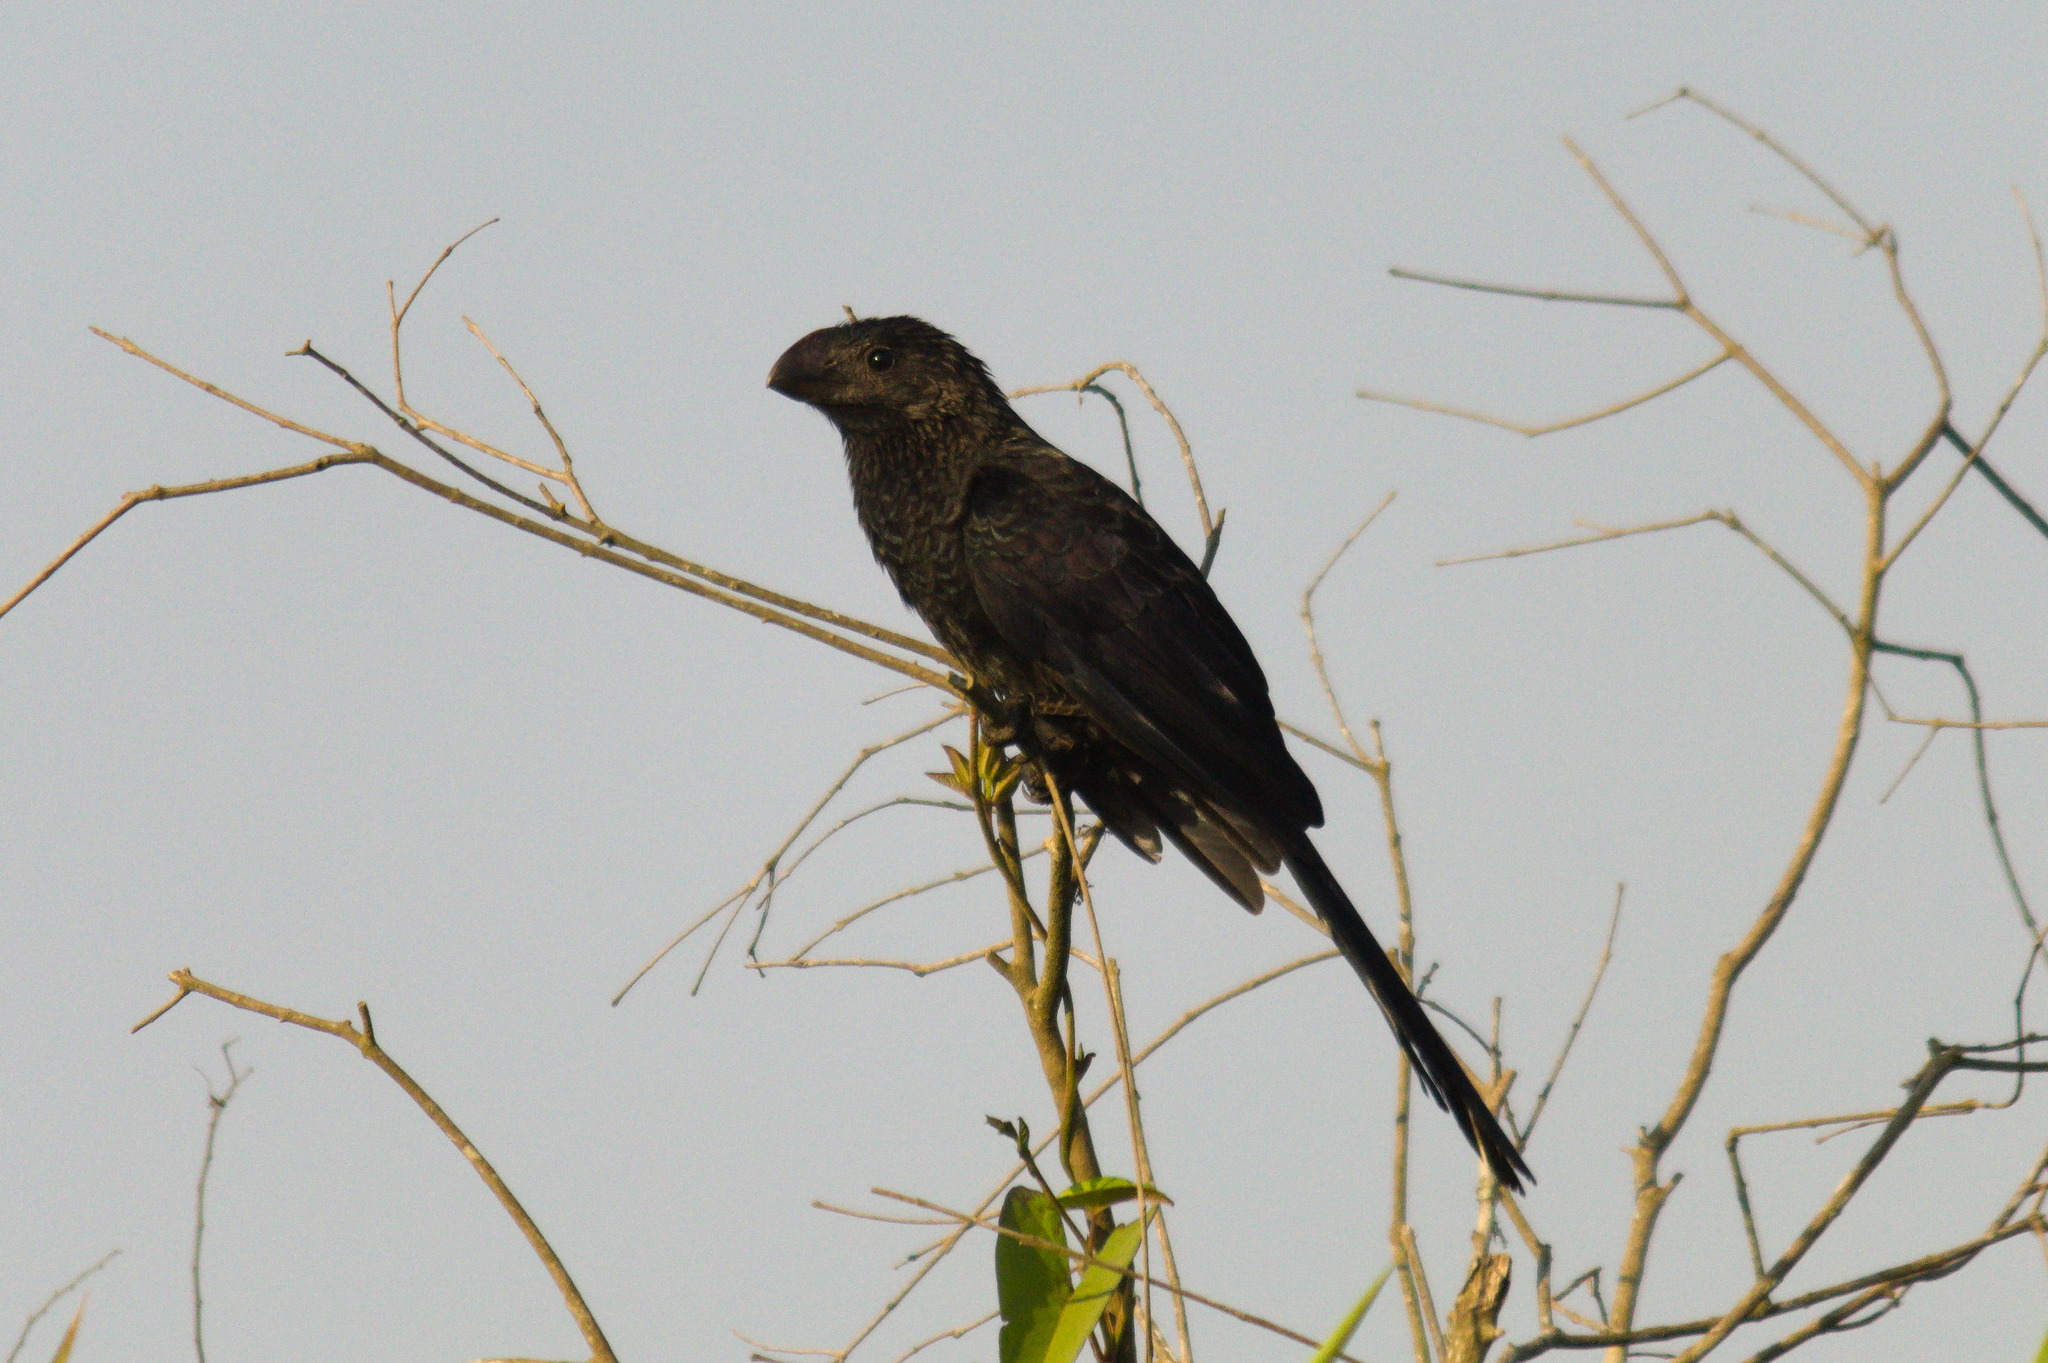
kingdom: Animalia
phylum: Chordata
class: Aves
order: Cuculiformes
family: Cuculidae
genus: Crotophaga
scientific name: Crotophaga ani
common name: Smooth-billed ani
